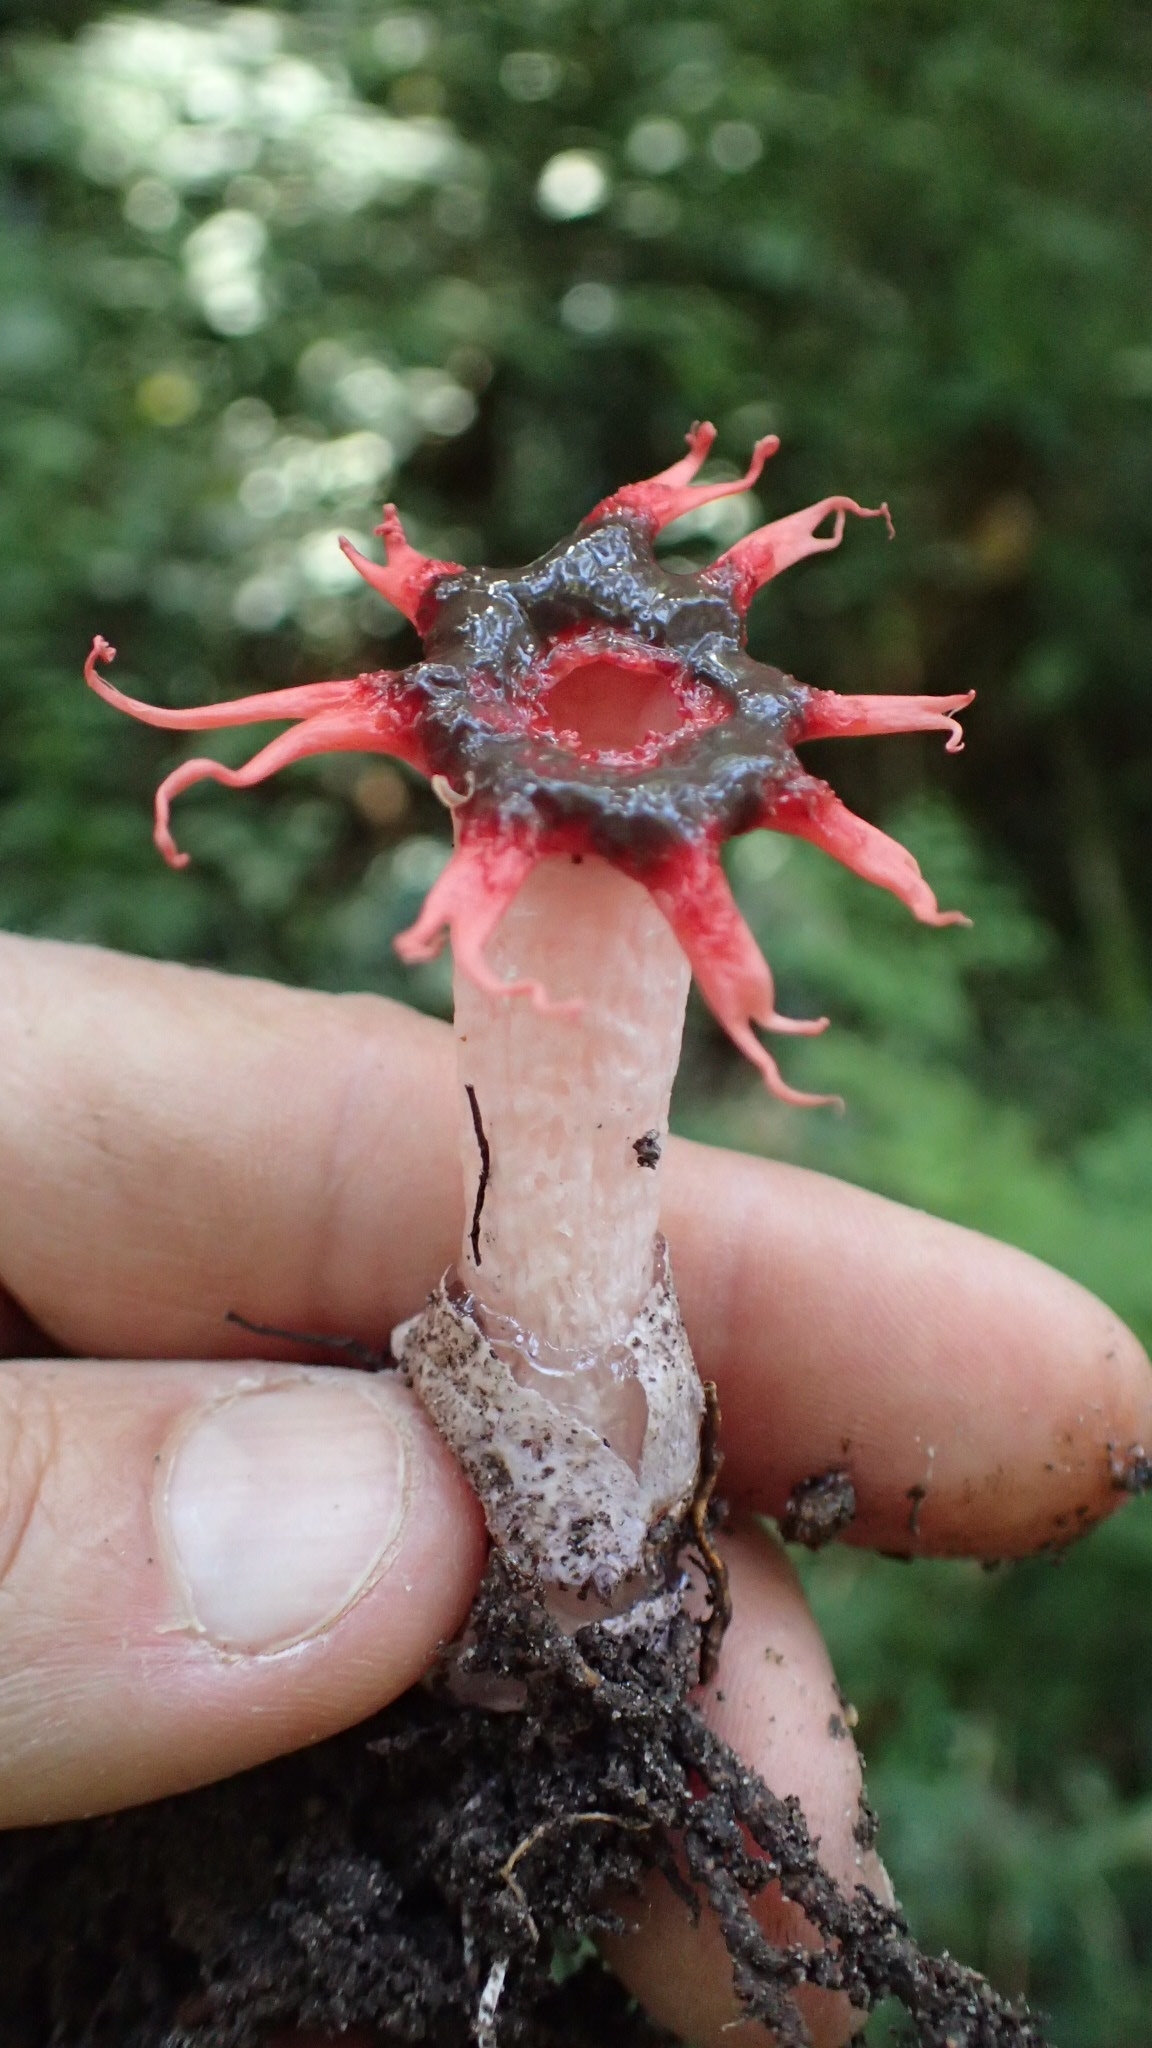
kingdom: Fungi
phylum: Basidiomycota
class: Agaricomycetes
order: Phallales
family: Phallaceae
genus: Aseroe
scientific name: Aseroe rubra
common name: Starfish fungus
